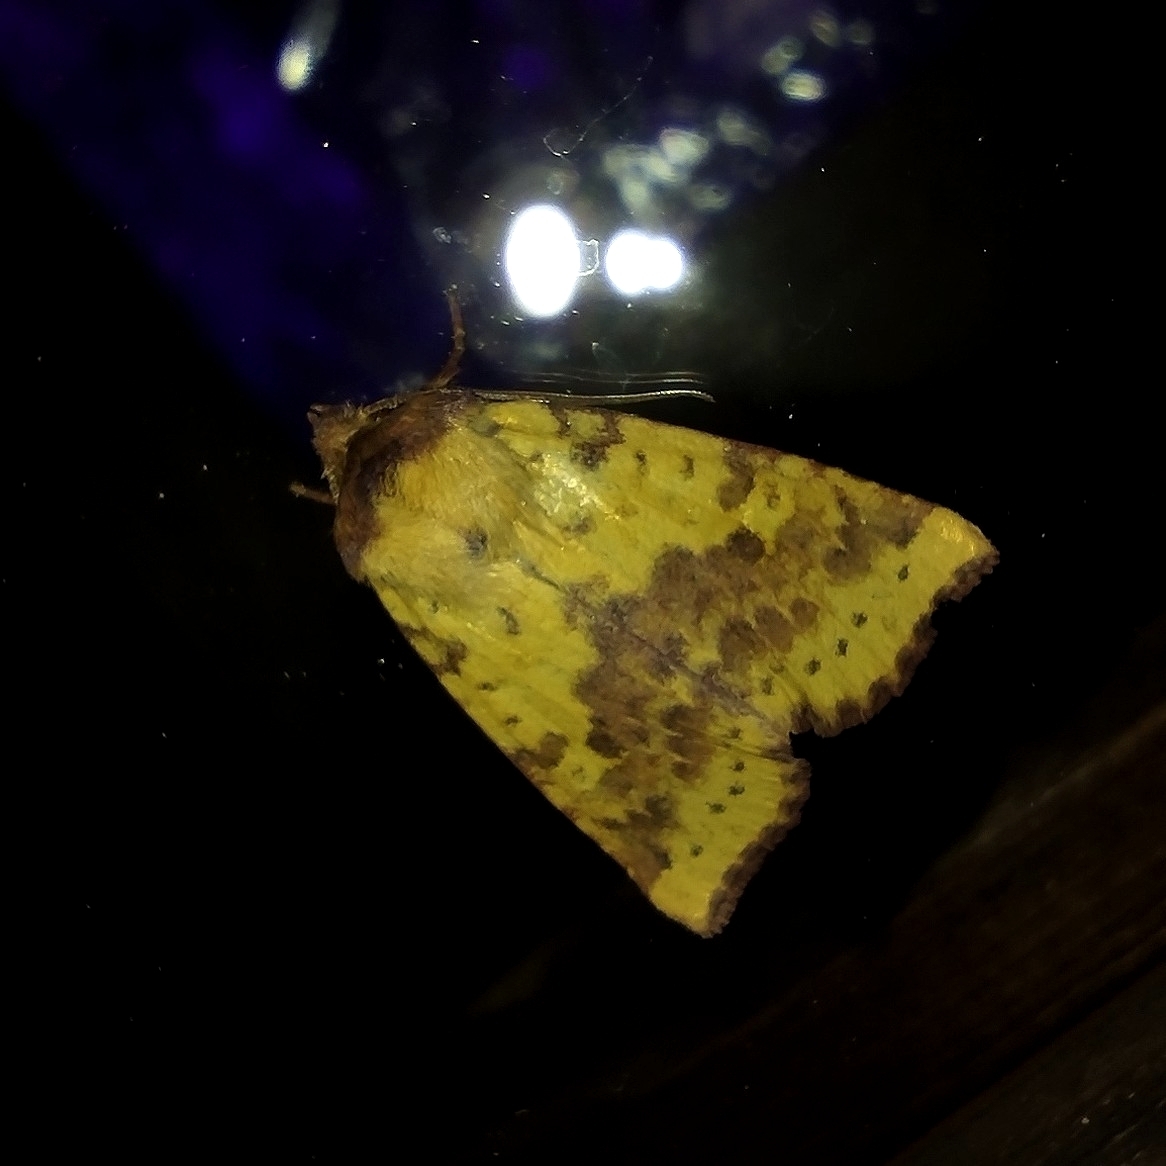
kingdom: Animalia
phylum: Arthropoda
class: Insecta
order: Lepidoptera
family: Noctuidae
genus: Xanthia
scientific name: Xanthia togata
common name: Pink-barred sallow
